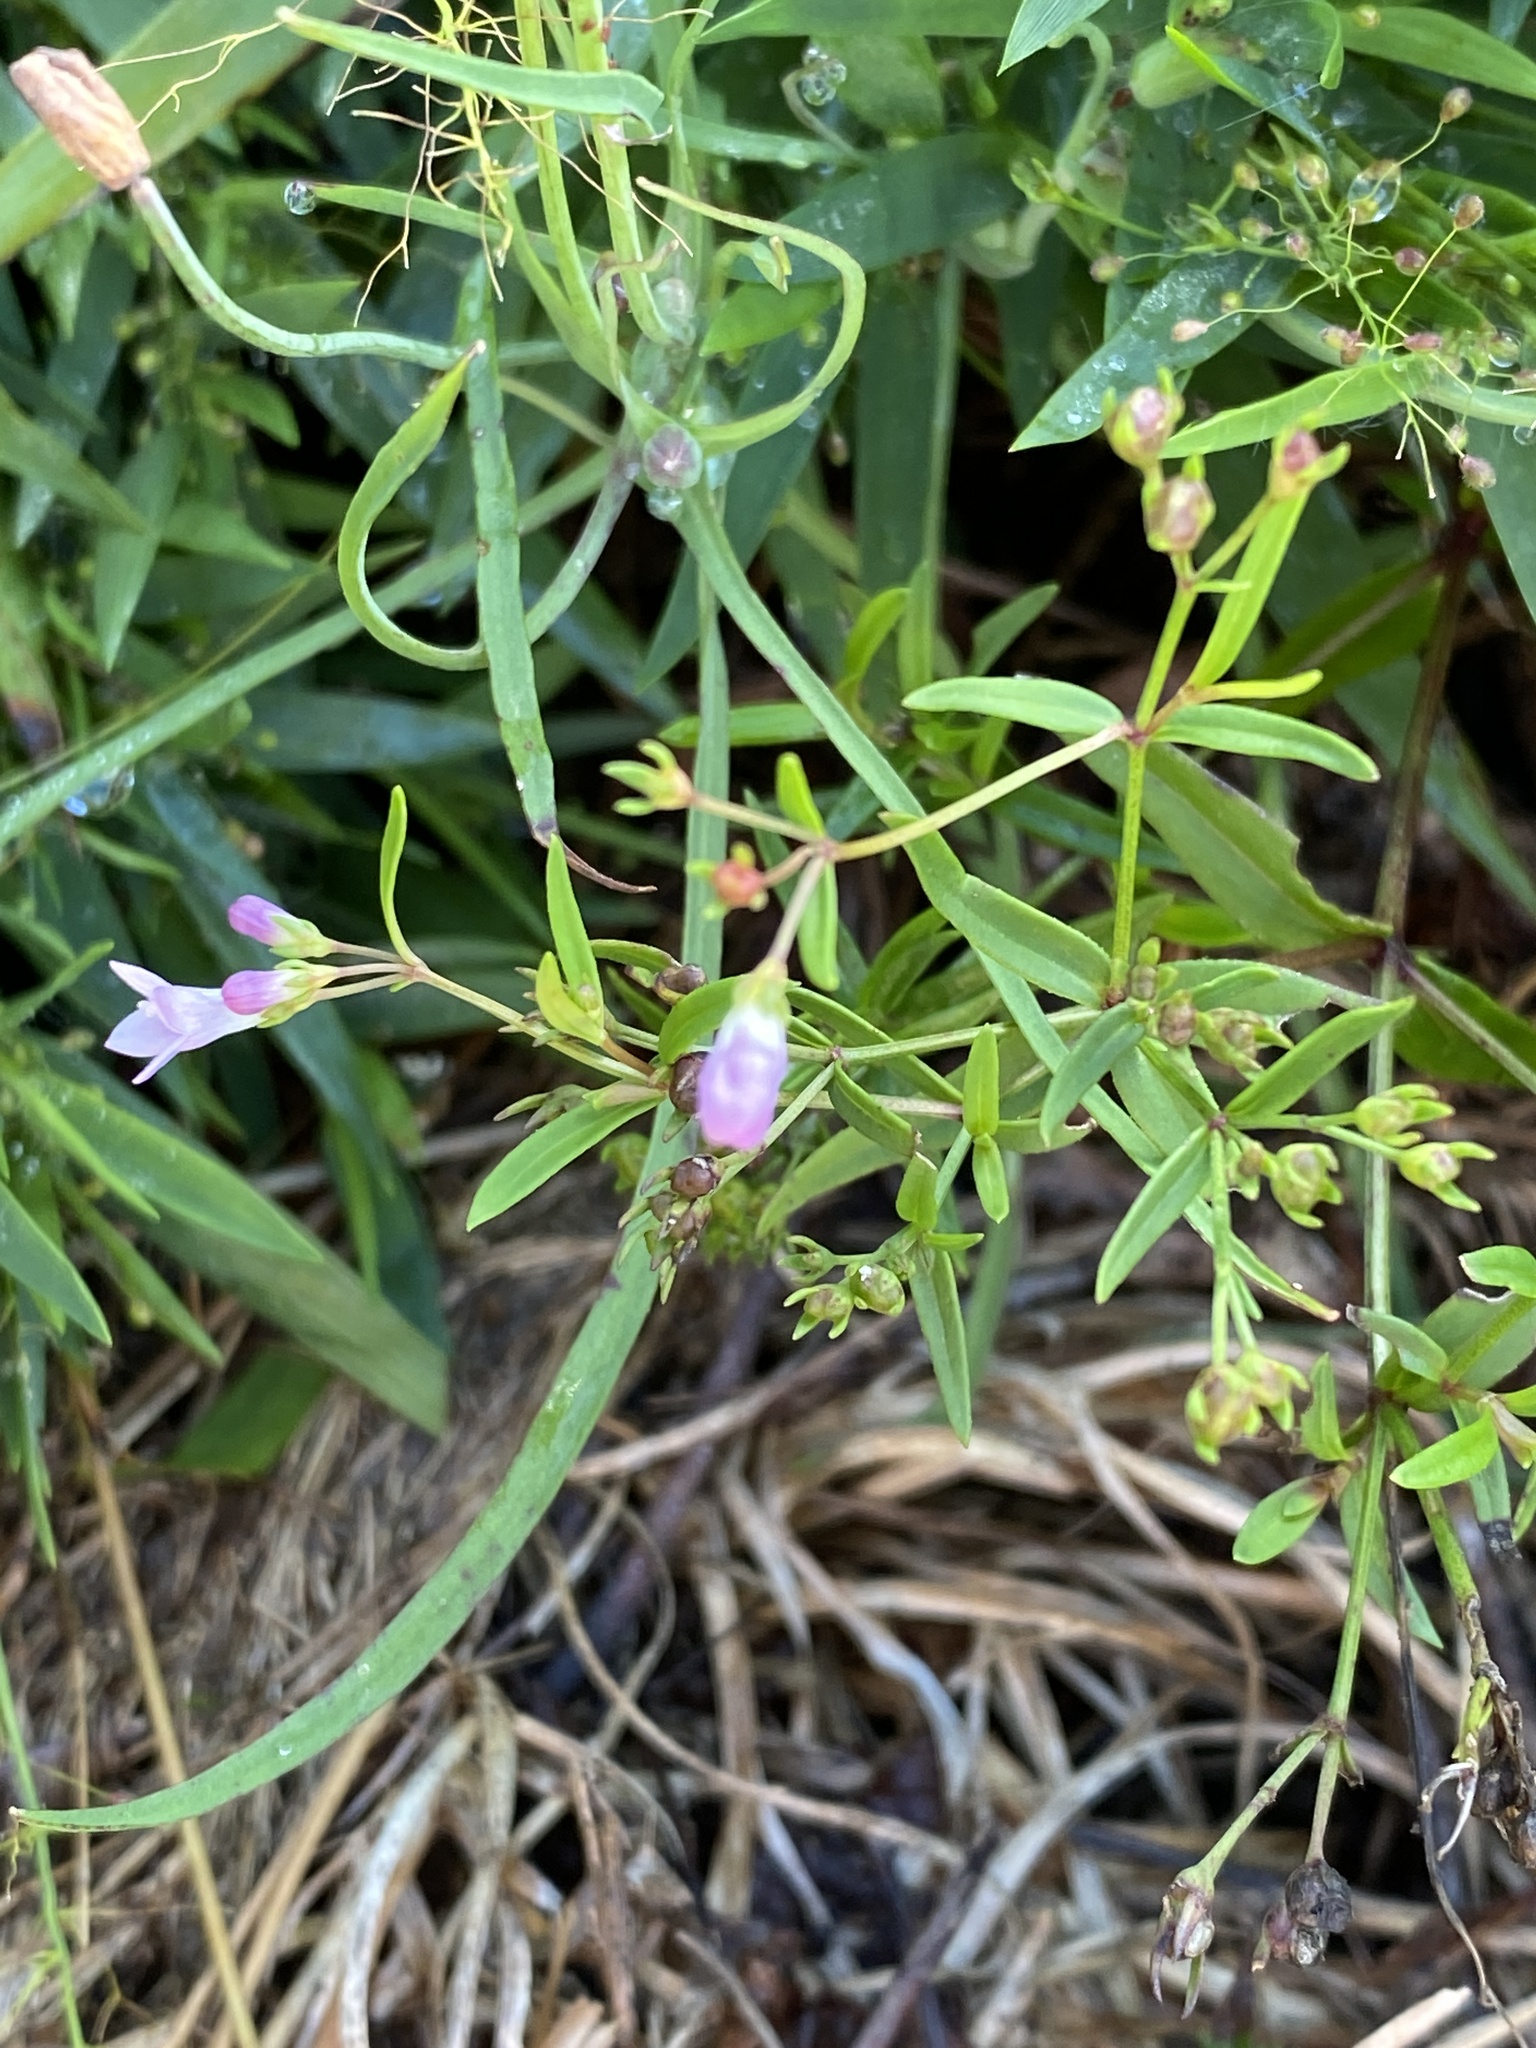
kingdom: Plantae
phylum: Tracheophyta
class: Magnoliopsida
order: Gentianales
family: Rubiaceae
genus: Houstonia
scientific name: Houstonia longifolia
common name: Long-leaved bluets
